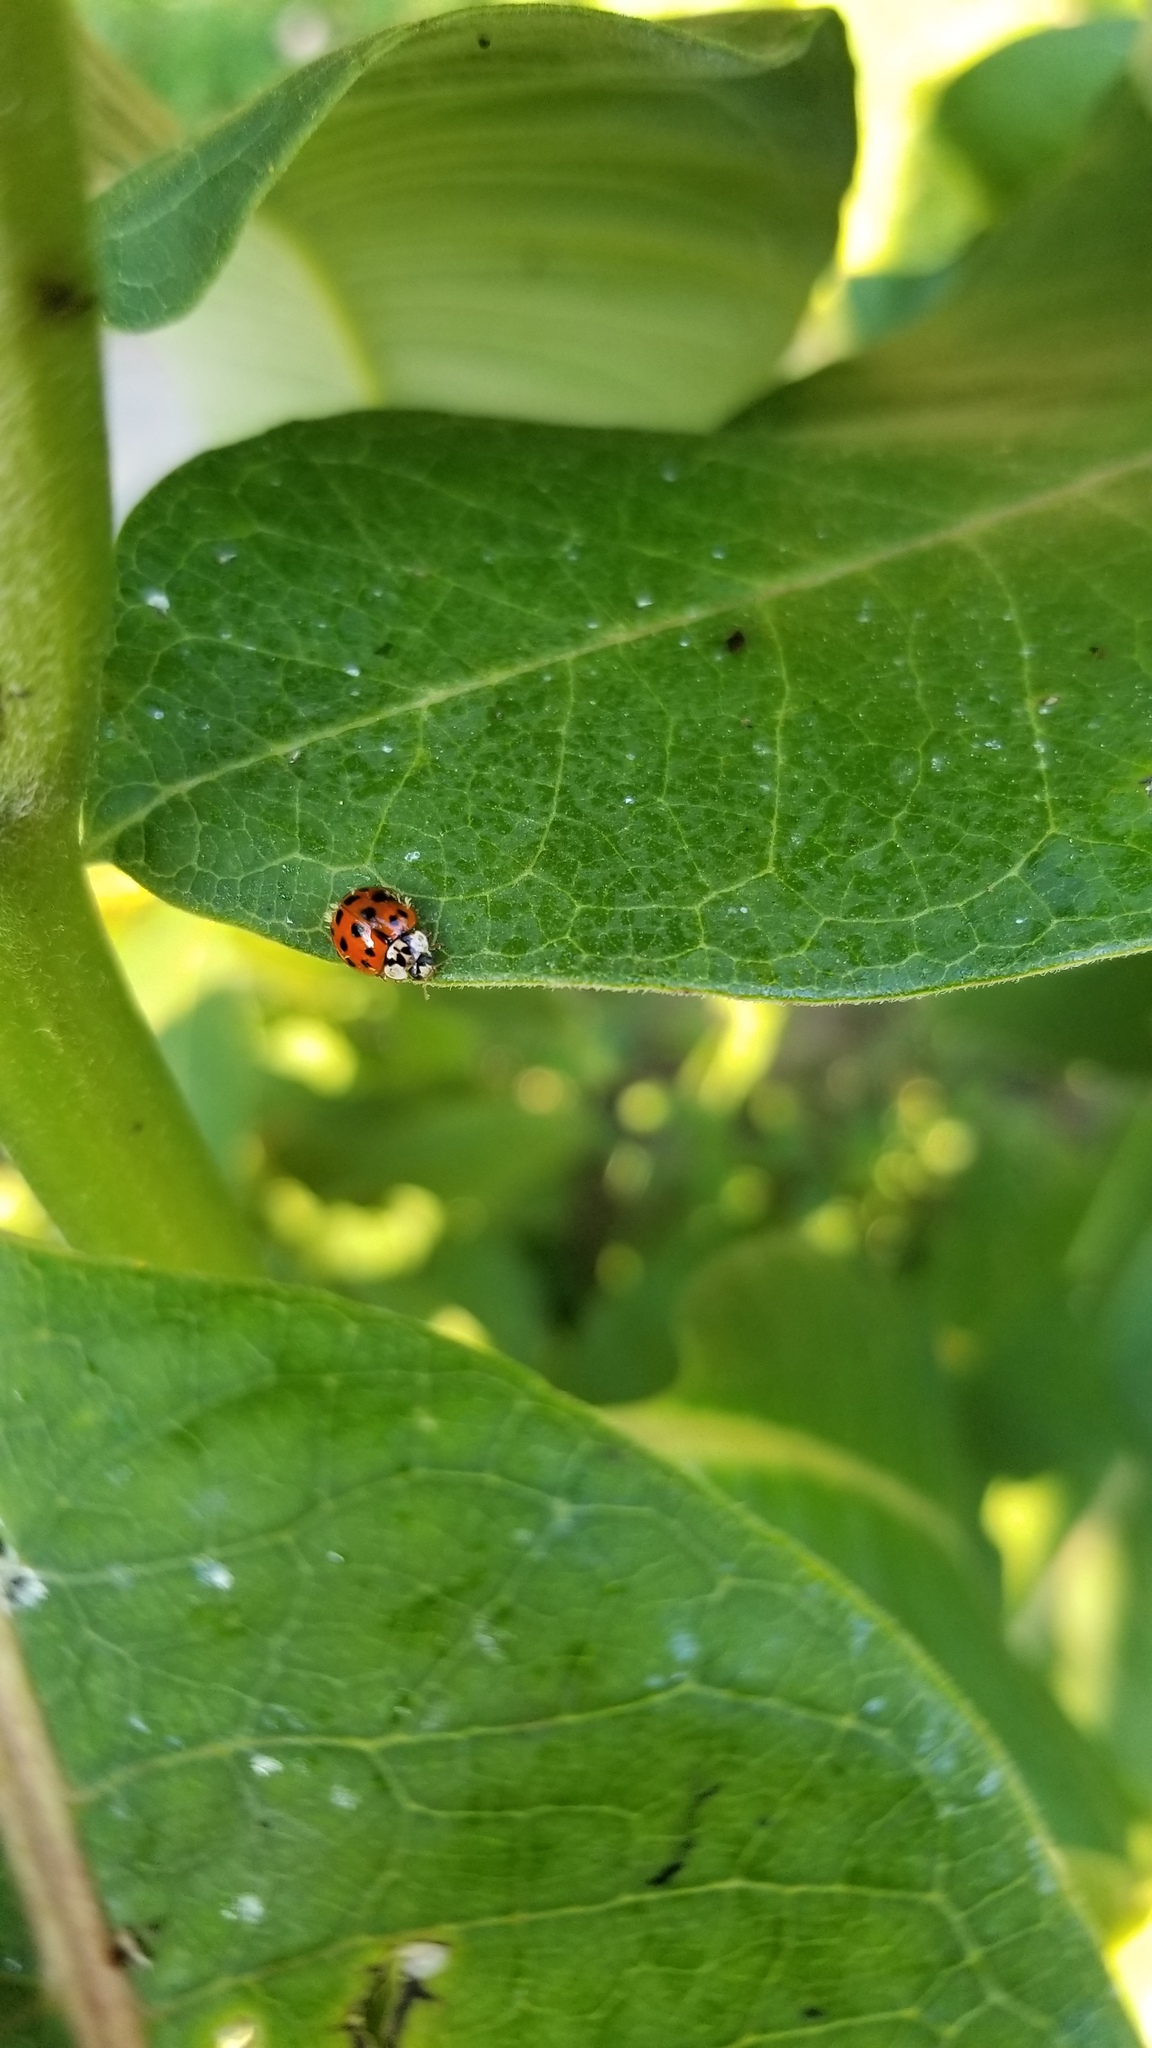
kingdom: Animalia
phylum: Arthropoda
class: Insecta
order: Coleoptera
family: Coccinellidae
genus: Harmonia
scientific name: Harmonia axyridis
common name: Harlequin ladybird
